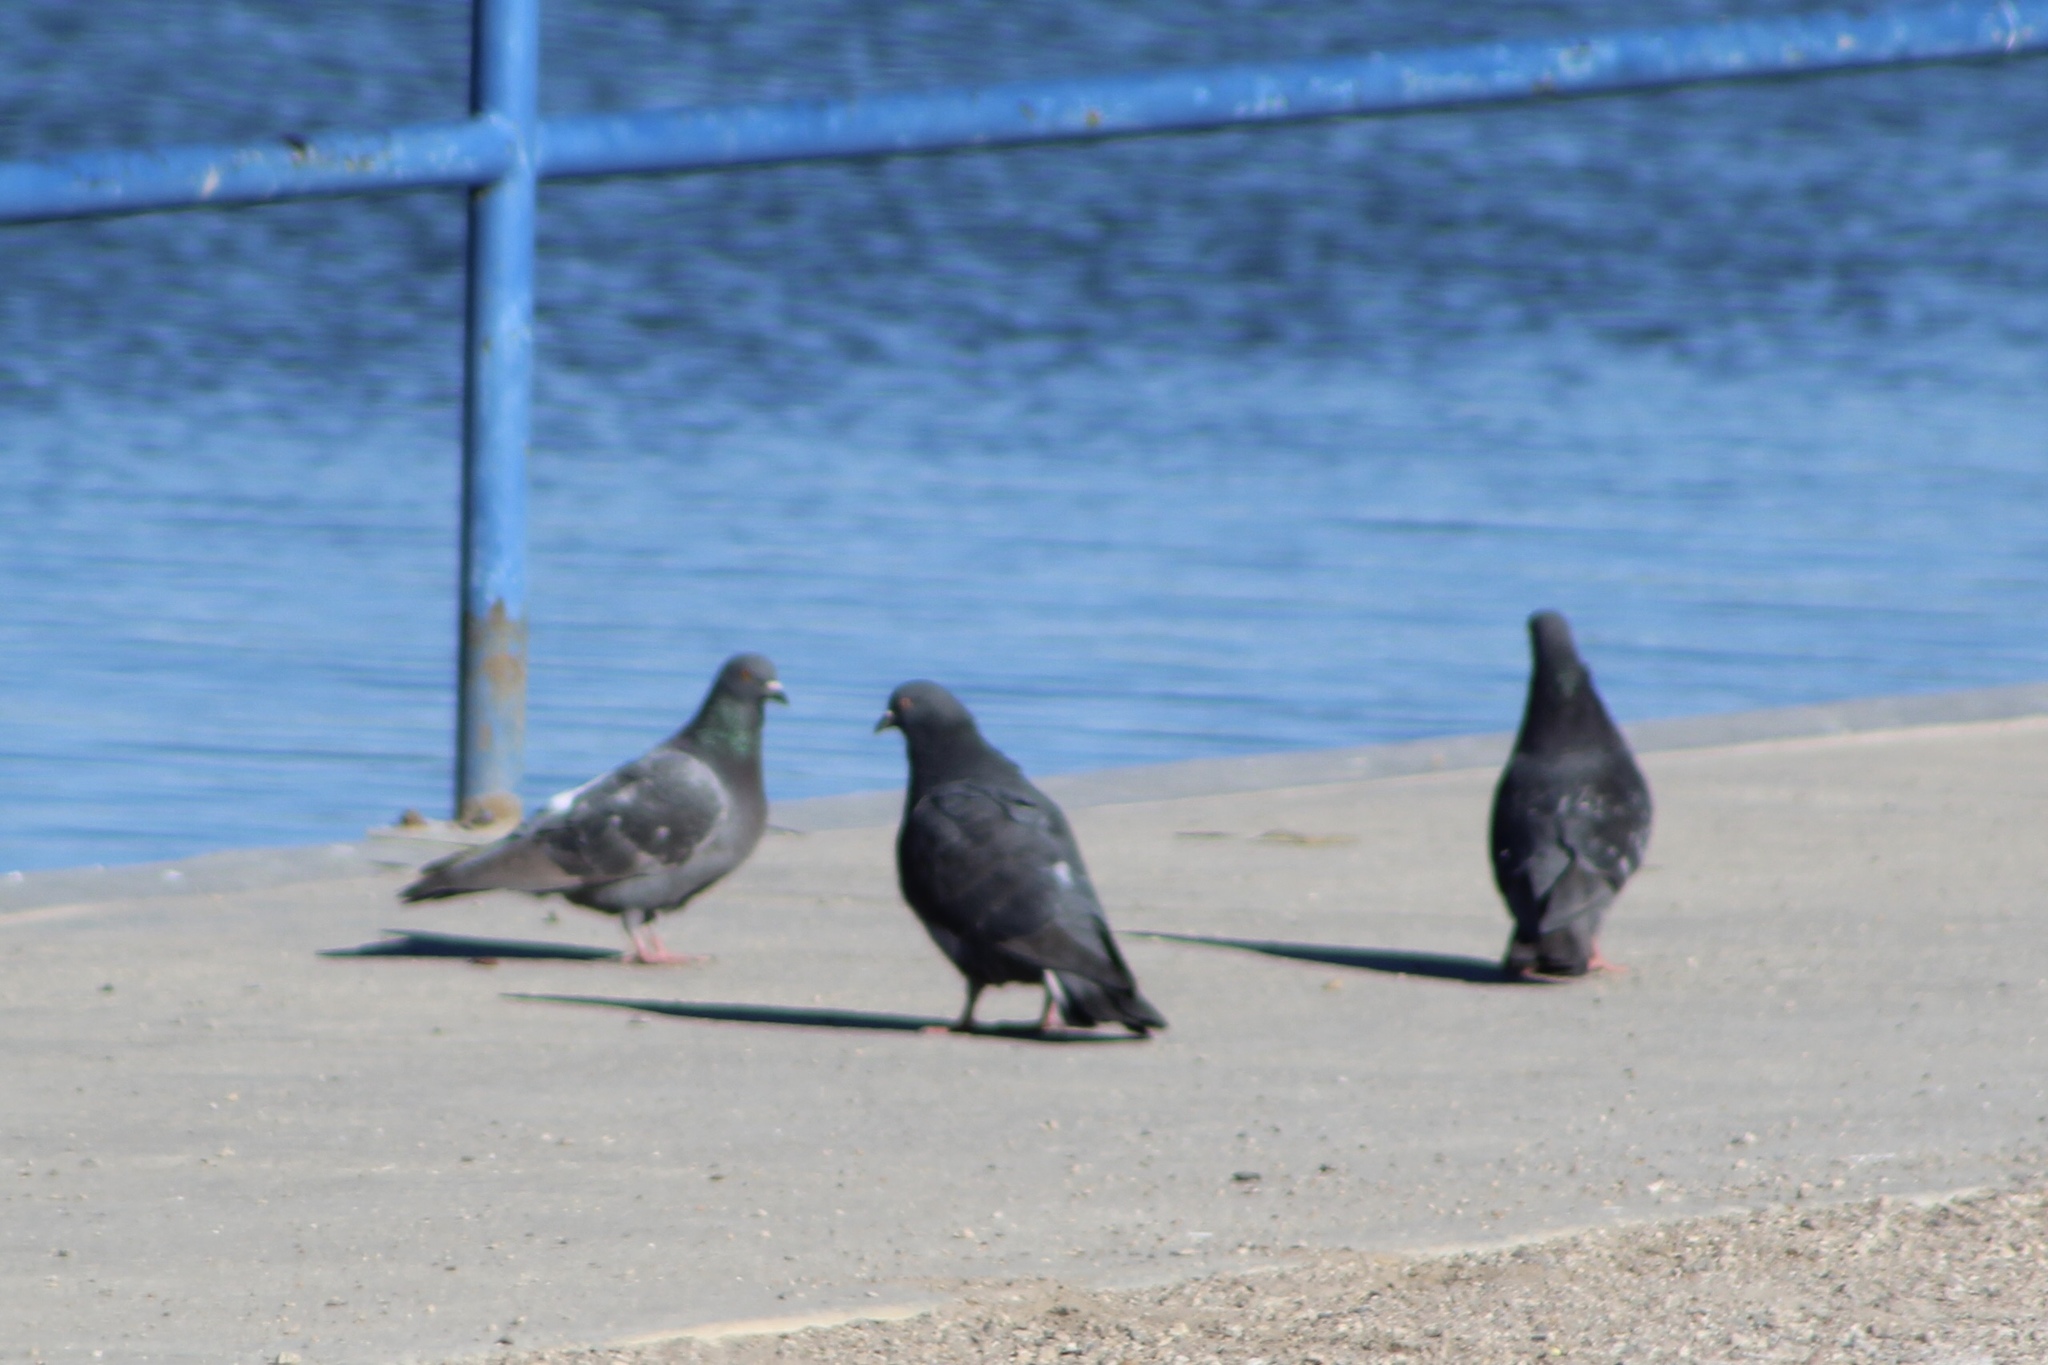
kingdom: Animalia
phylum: Chordata
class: Aves
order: Columbiformes
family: Columbidae
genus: Columba
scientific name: Columba livia
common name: Rock pigeon
